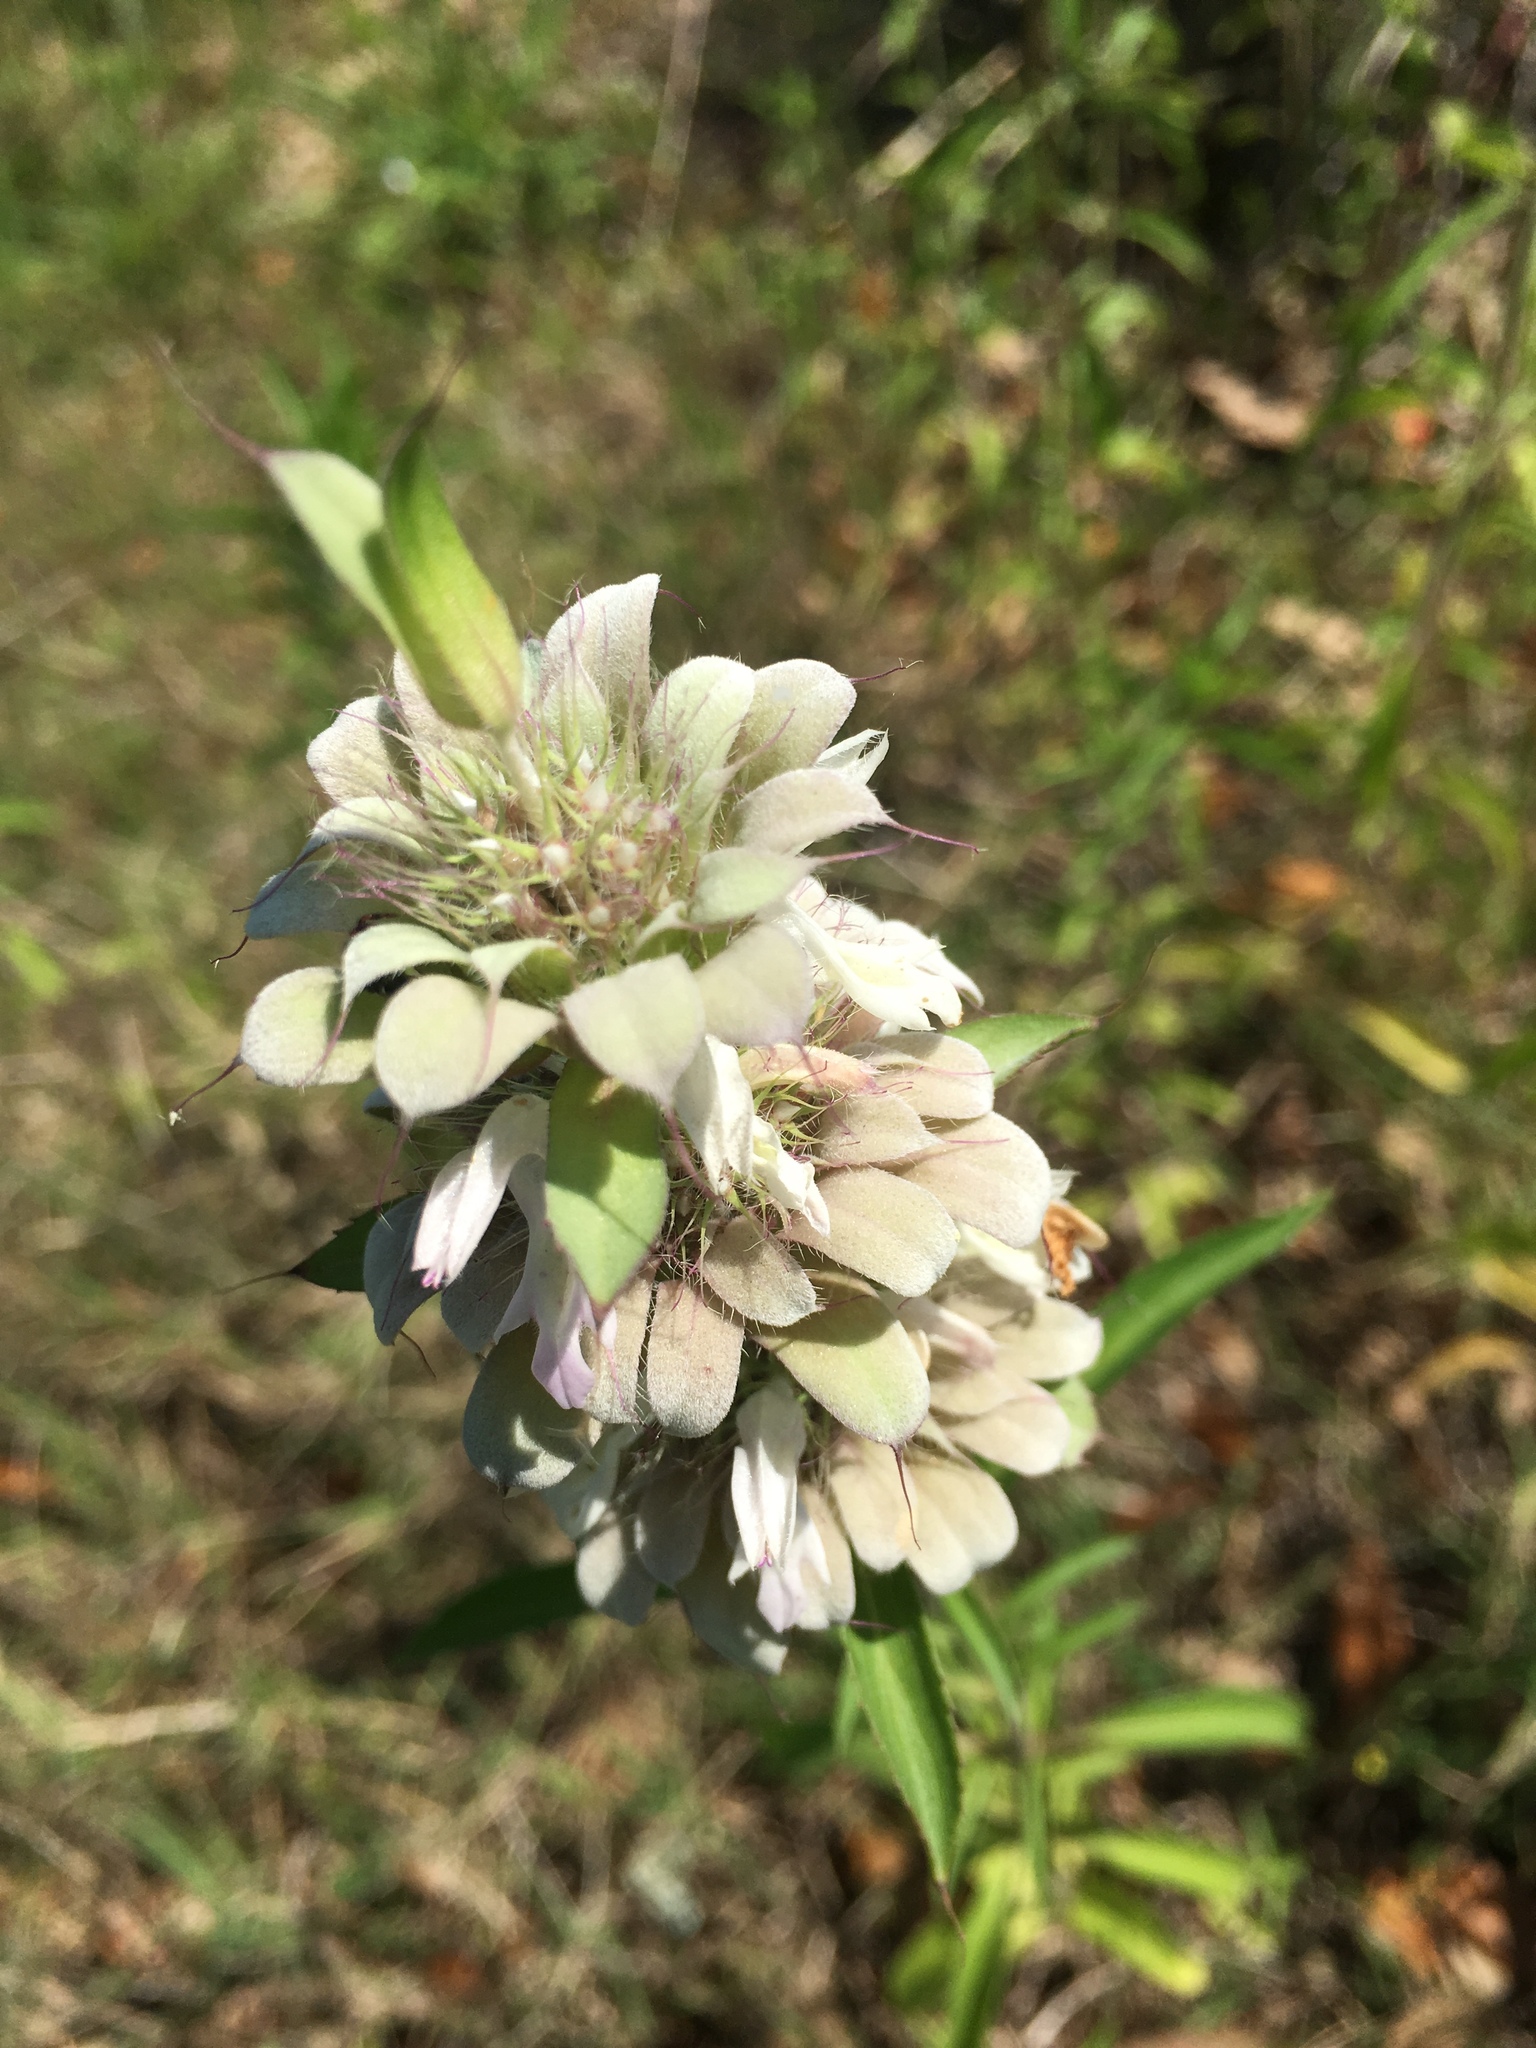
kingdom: Plantae
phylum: Tracheophyta
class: Magnoliopsida
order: Lamiales
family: Lamiaceae
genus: Monarda
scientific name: Monarda citriodora
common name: Lemon beebalm
